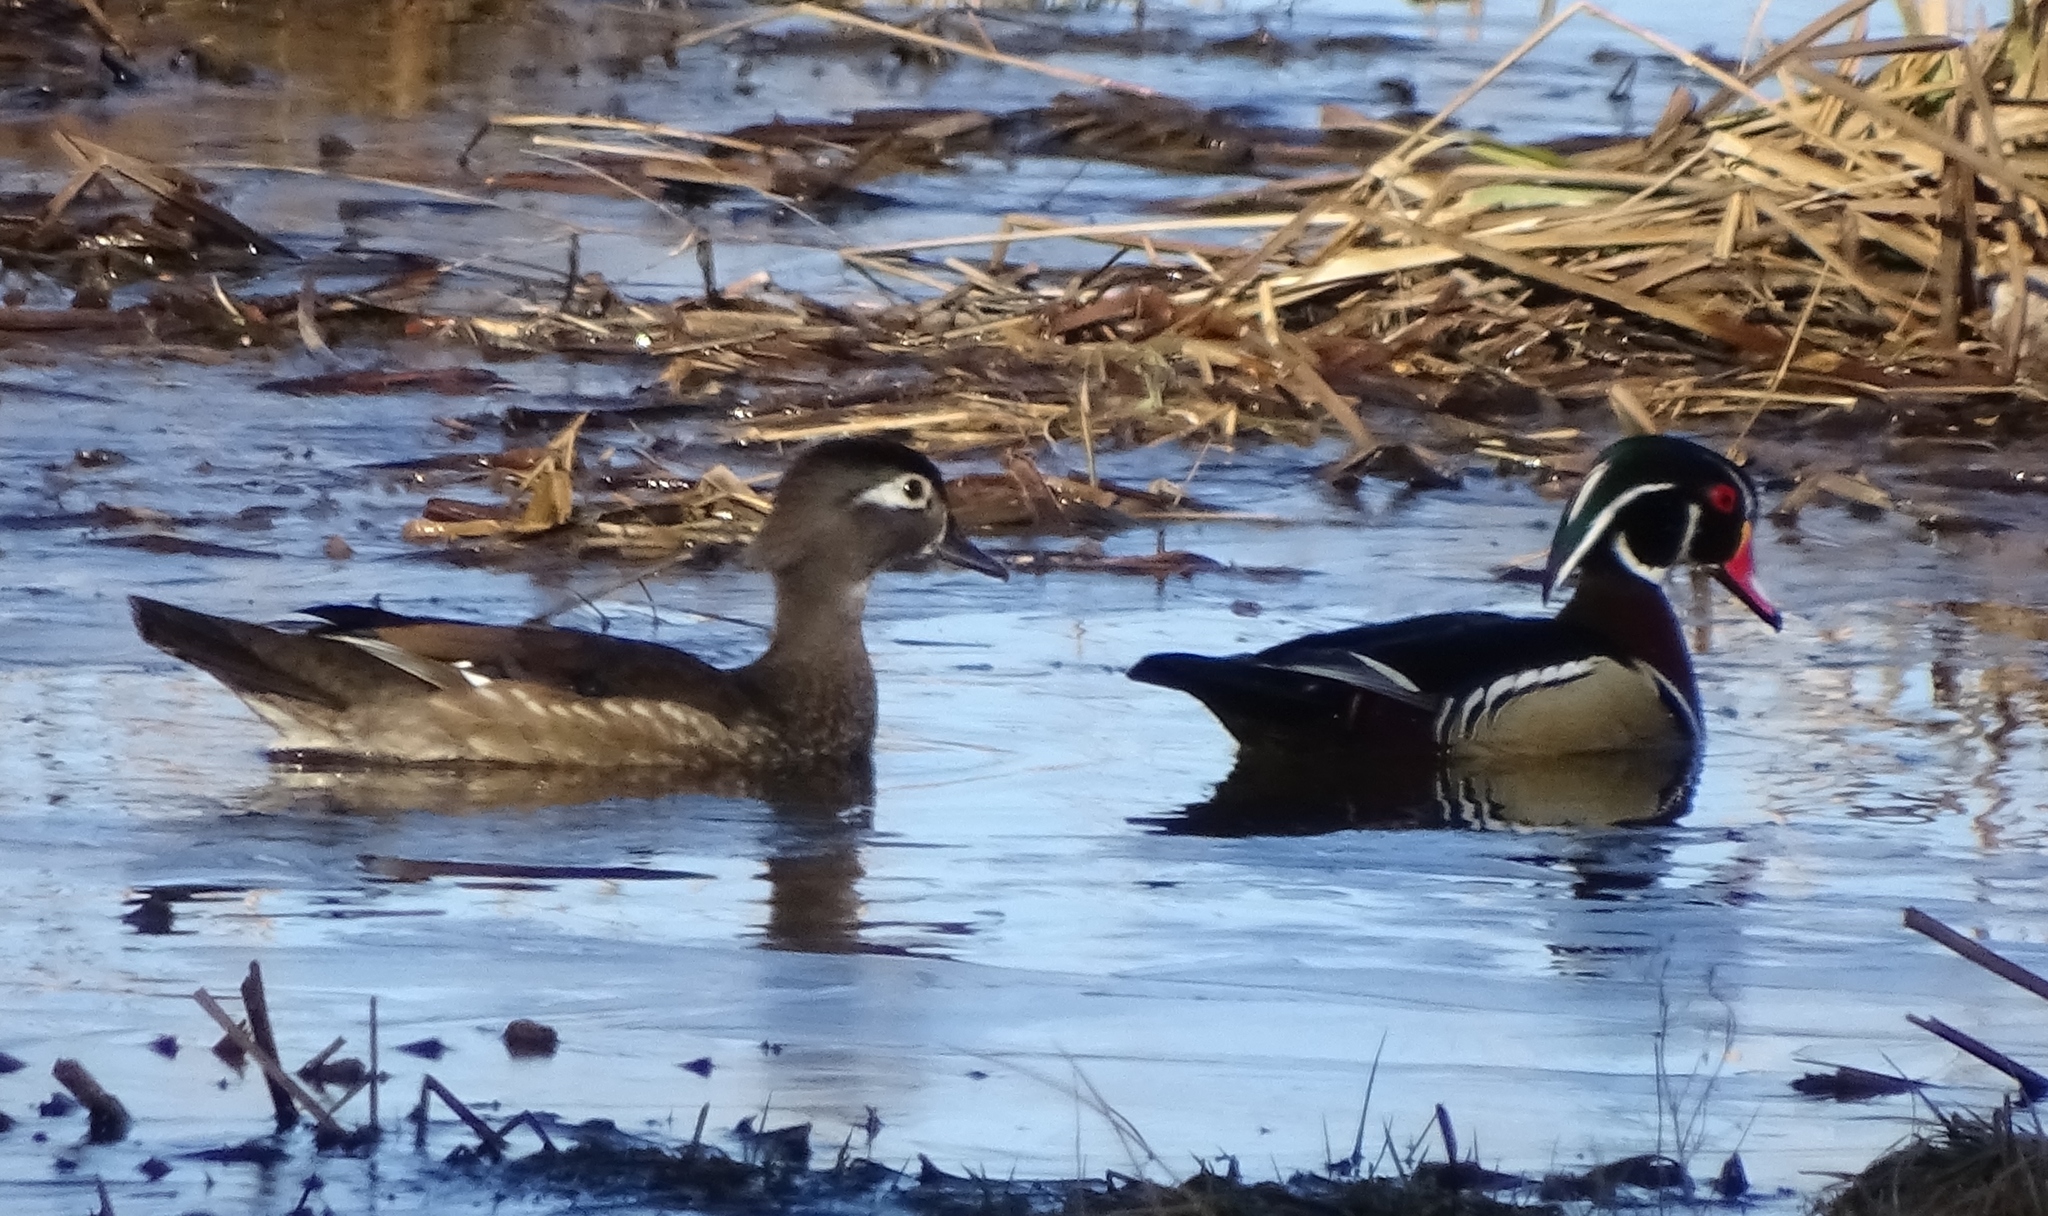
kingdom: Animalia
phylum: Chordata
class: Aves
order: Anseriformes
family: Anatidae
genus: Aix
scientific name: Aix sponsa
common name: Wood duck
